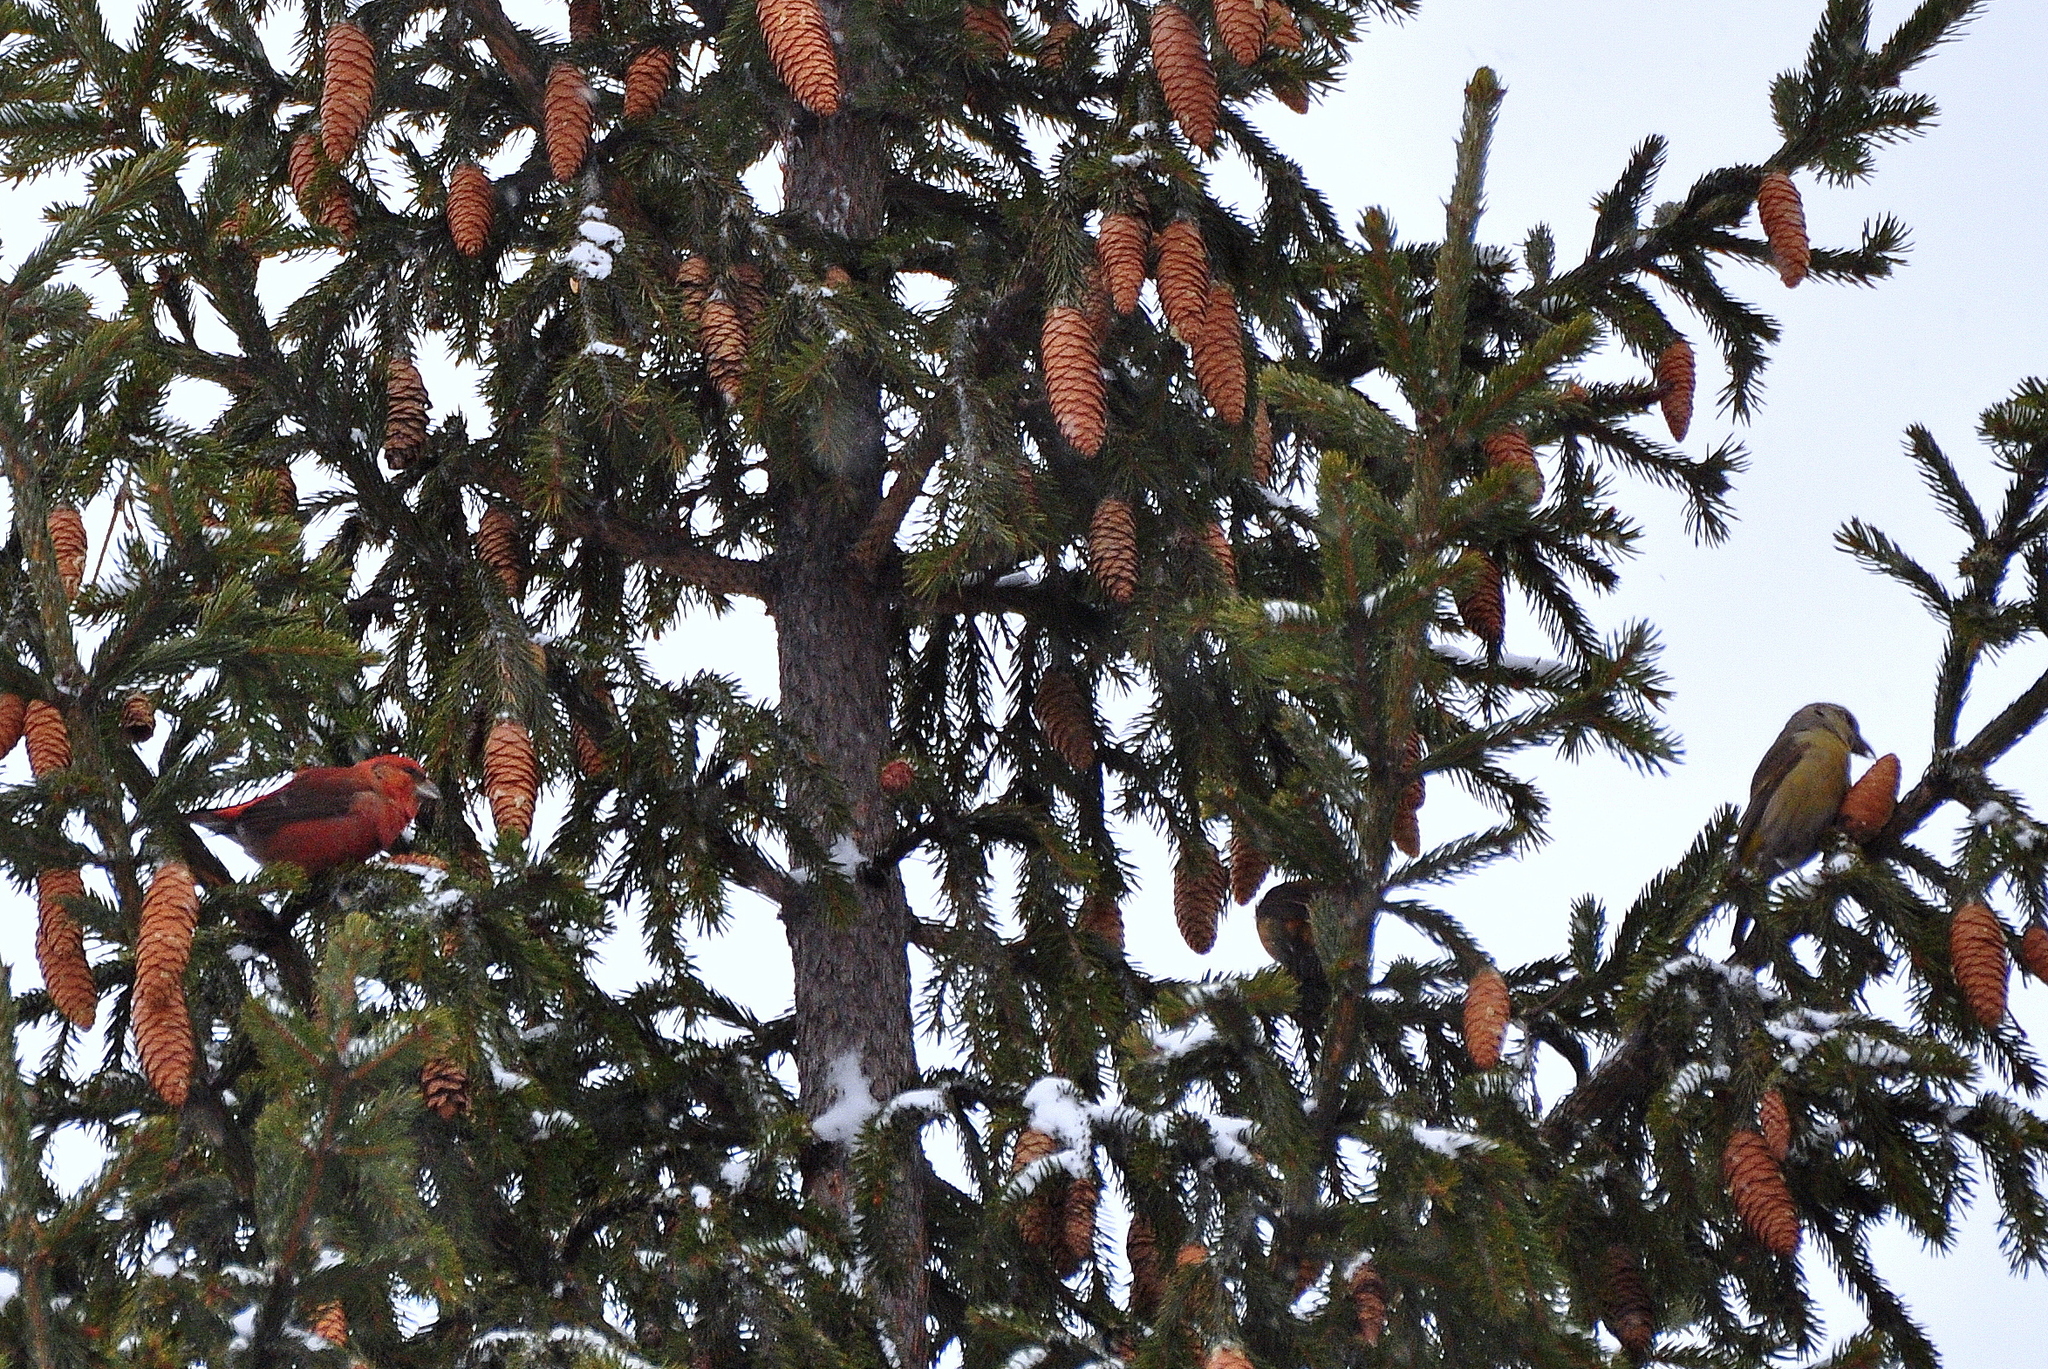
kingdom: Animalia
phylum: Chordata
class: Aves
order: Passeriformes
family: Fringillidae
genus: Loxia
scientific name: Loxia curvirostra
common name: Red crossbill
